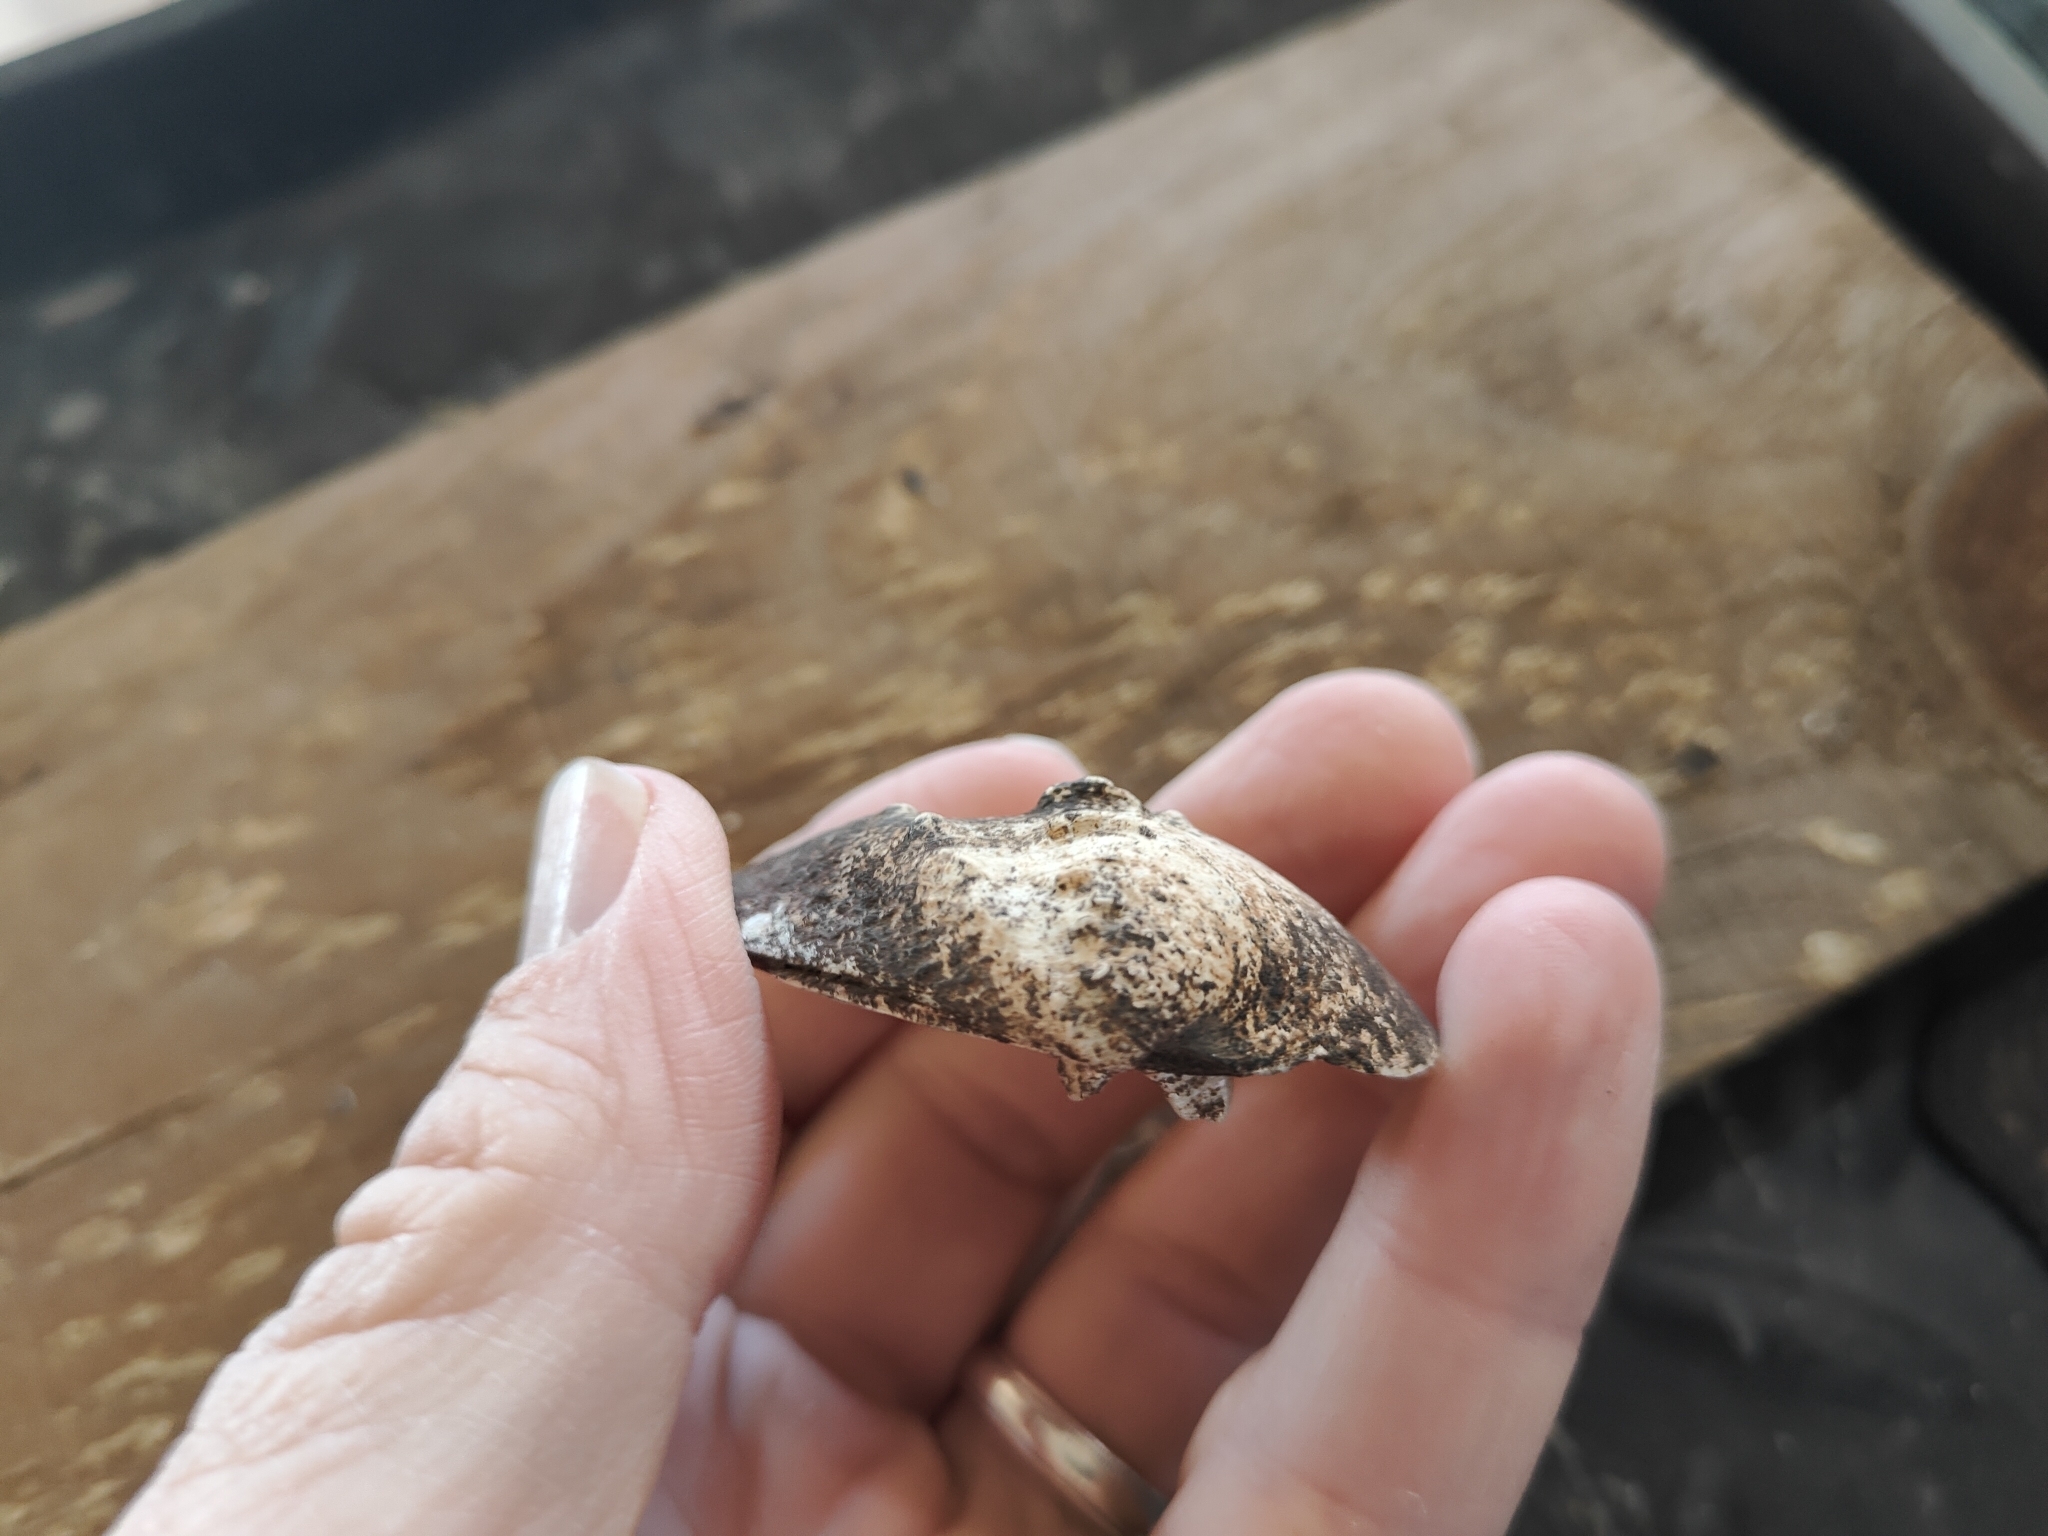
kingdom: Animalia
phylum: Mollusca
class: Bivalvia
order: Unionida
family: Unionidae
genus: Quadrula
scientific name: Quadrula quadrula
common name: Mapleleaf
